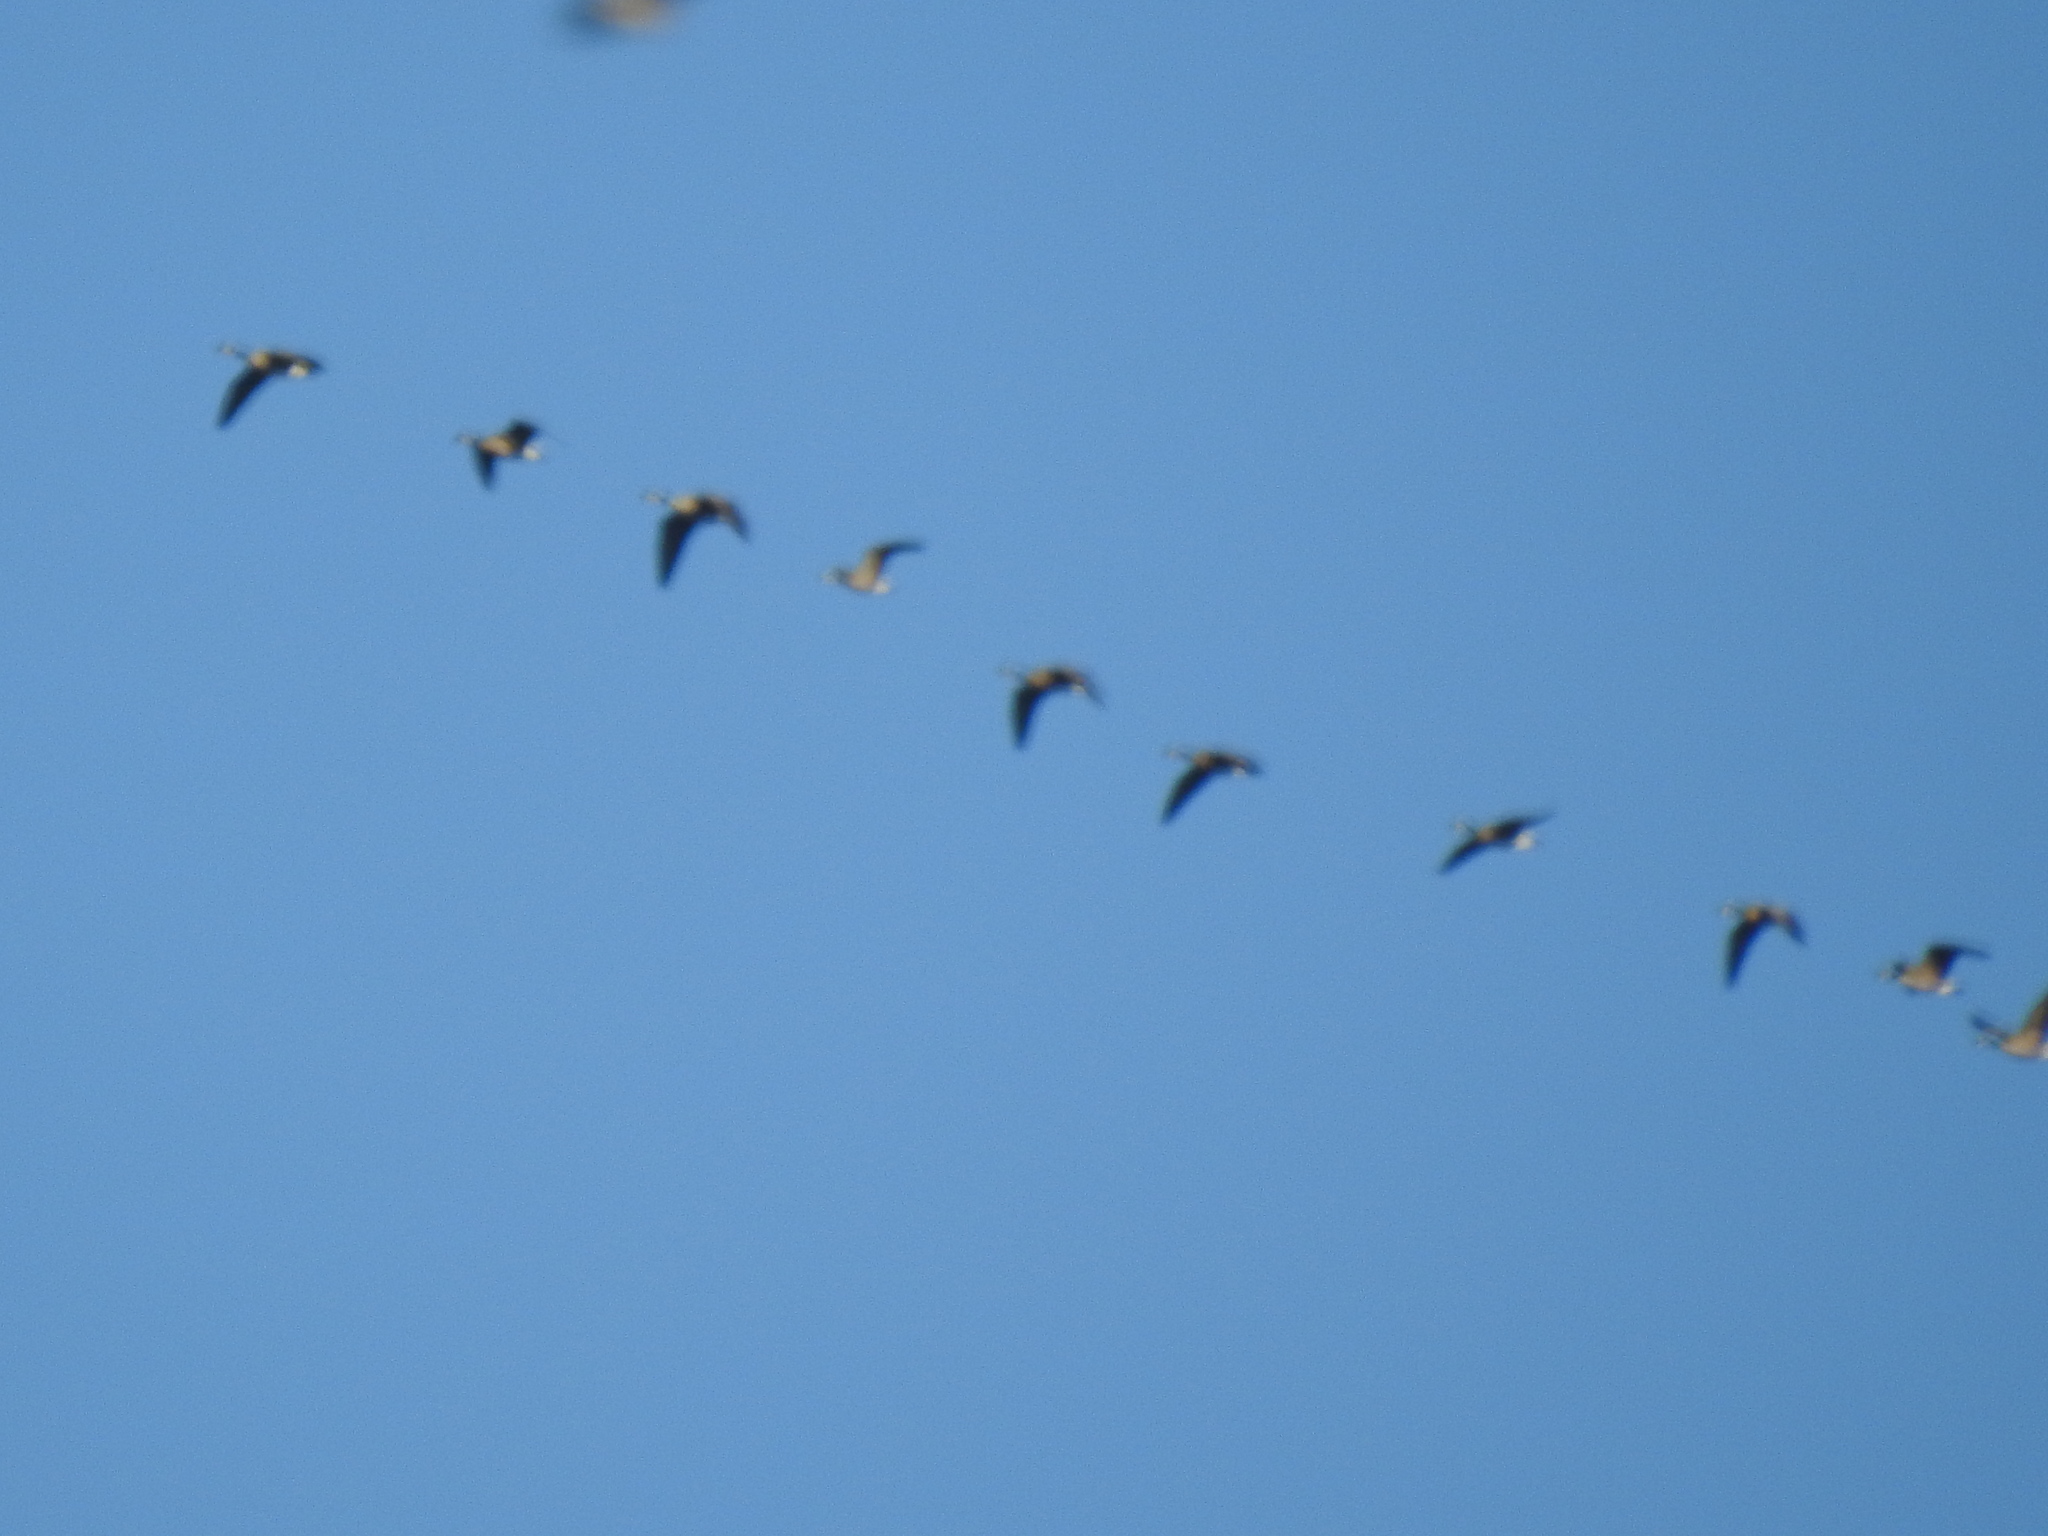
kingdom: Animalia
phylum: Chordata
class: Aves
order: Anseriformes
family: Anatidae
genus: Branta
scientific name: Branta canadensis
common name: Canada goose
